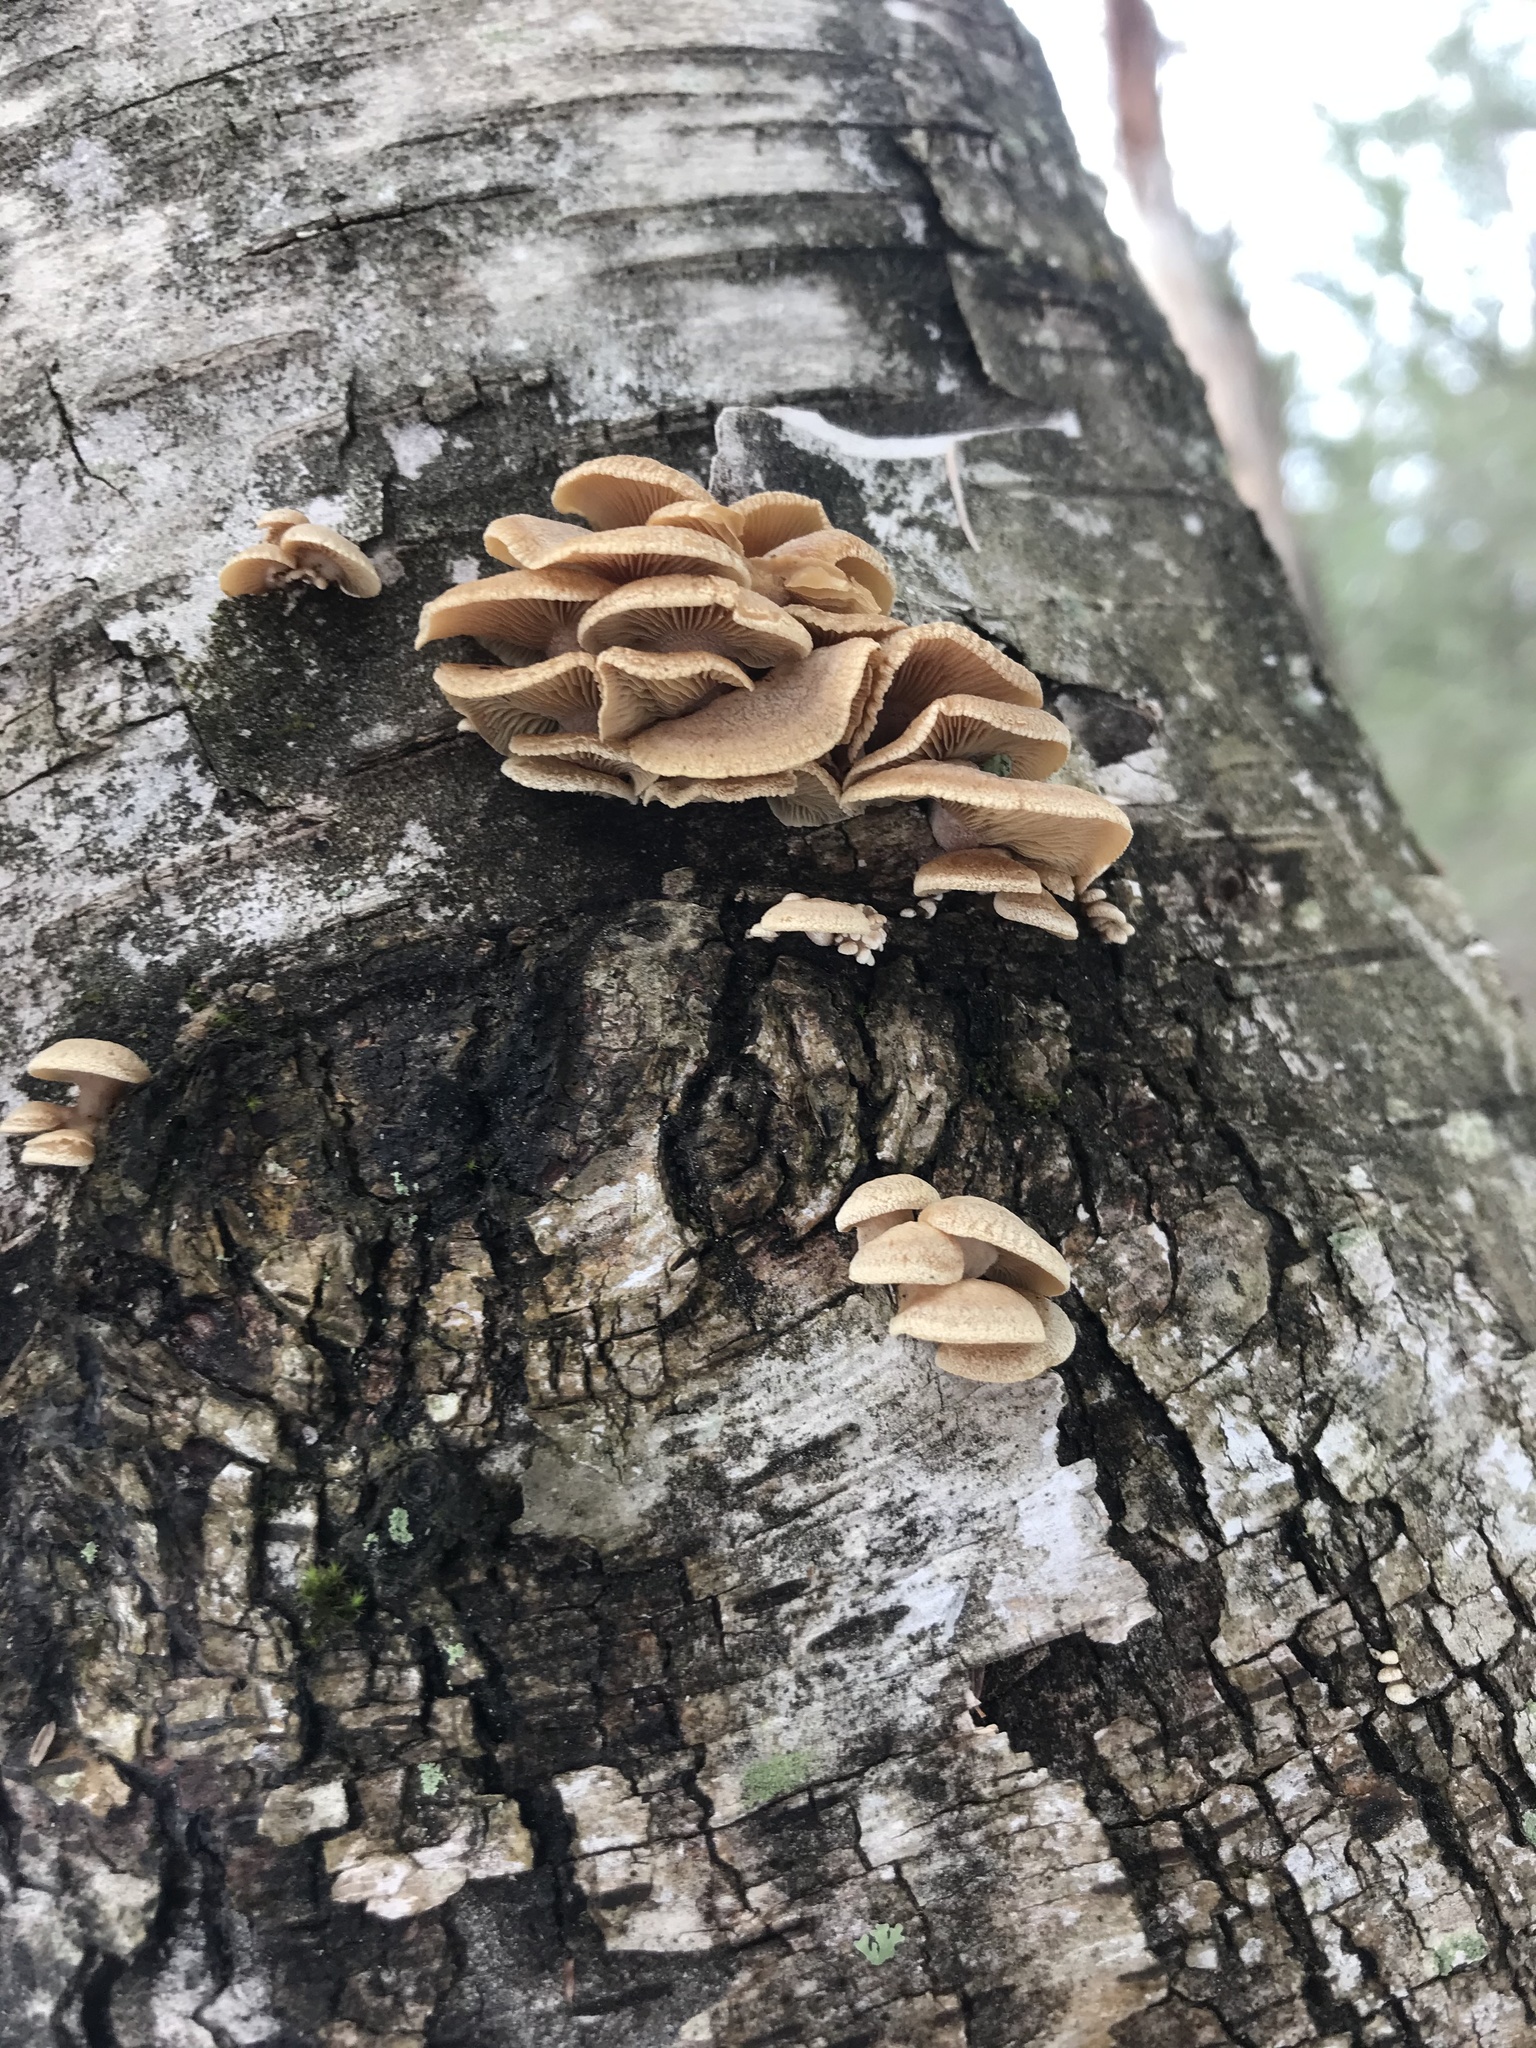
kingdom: Fungi
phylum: Basidiomycota
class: Agaricomycetes
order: Agaricales
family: Mycenaceae
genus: Panellus
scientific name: Panellus stipticus
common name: Bitter oysterling
